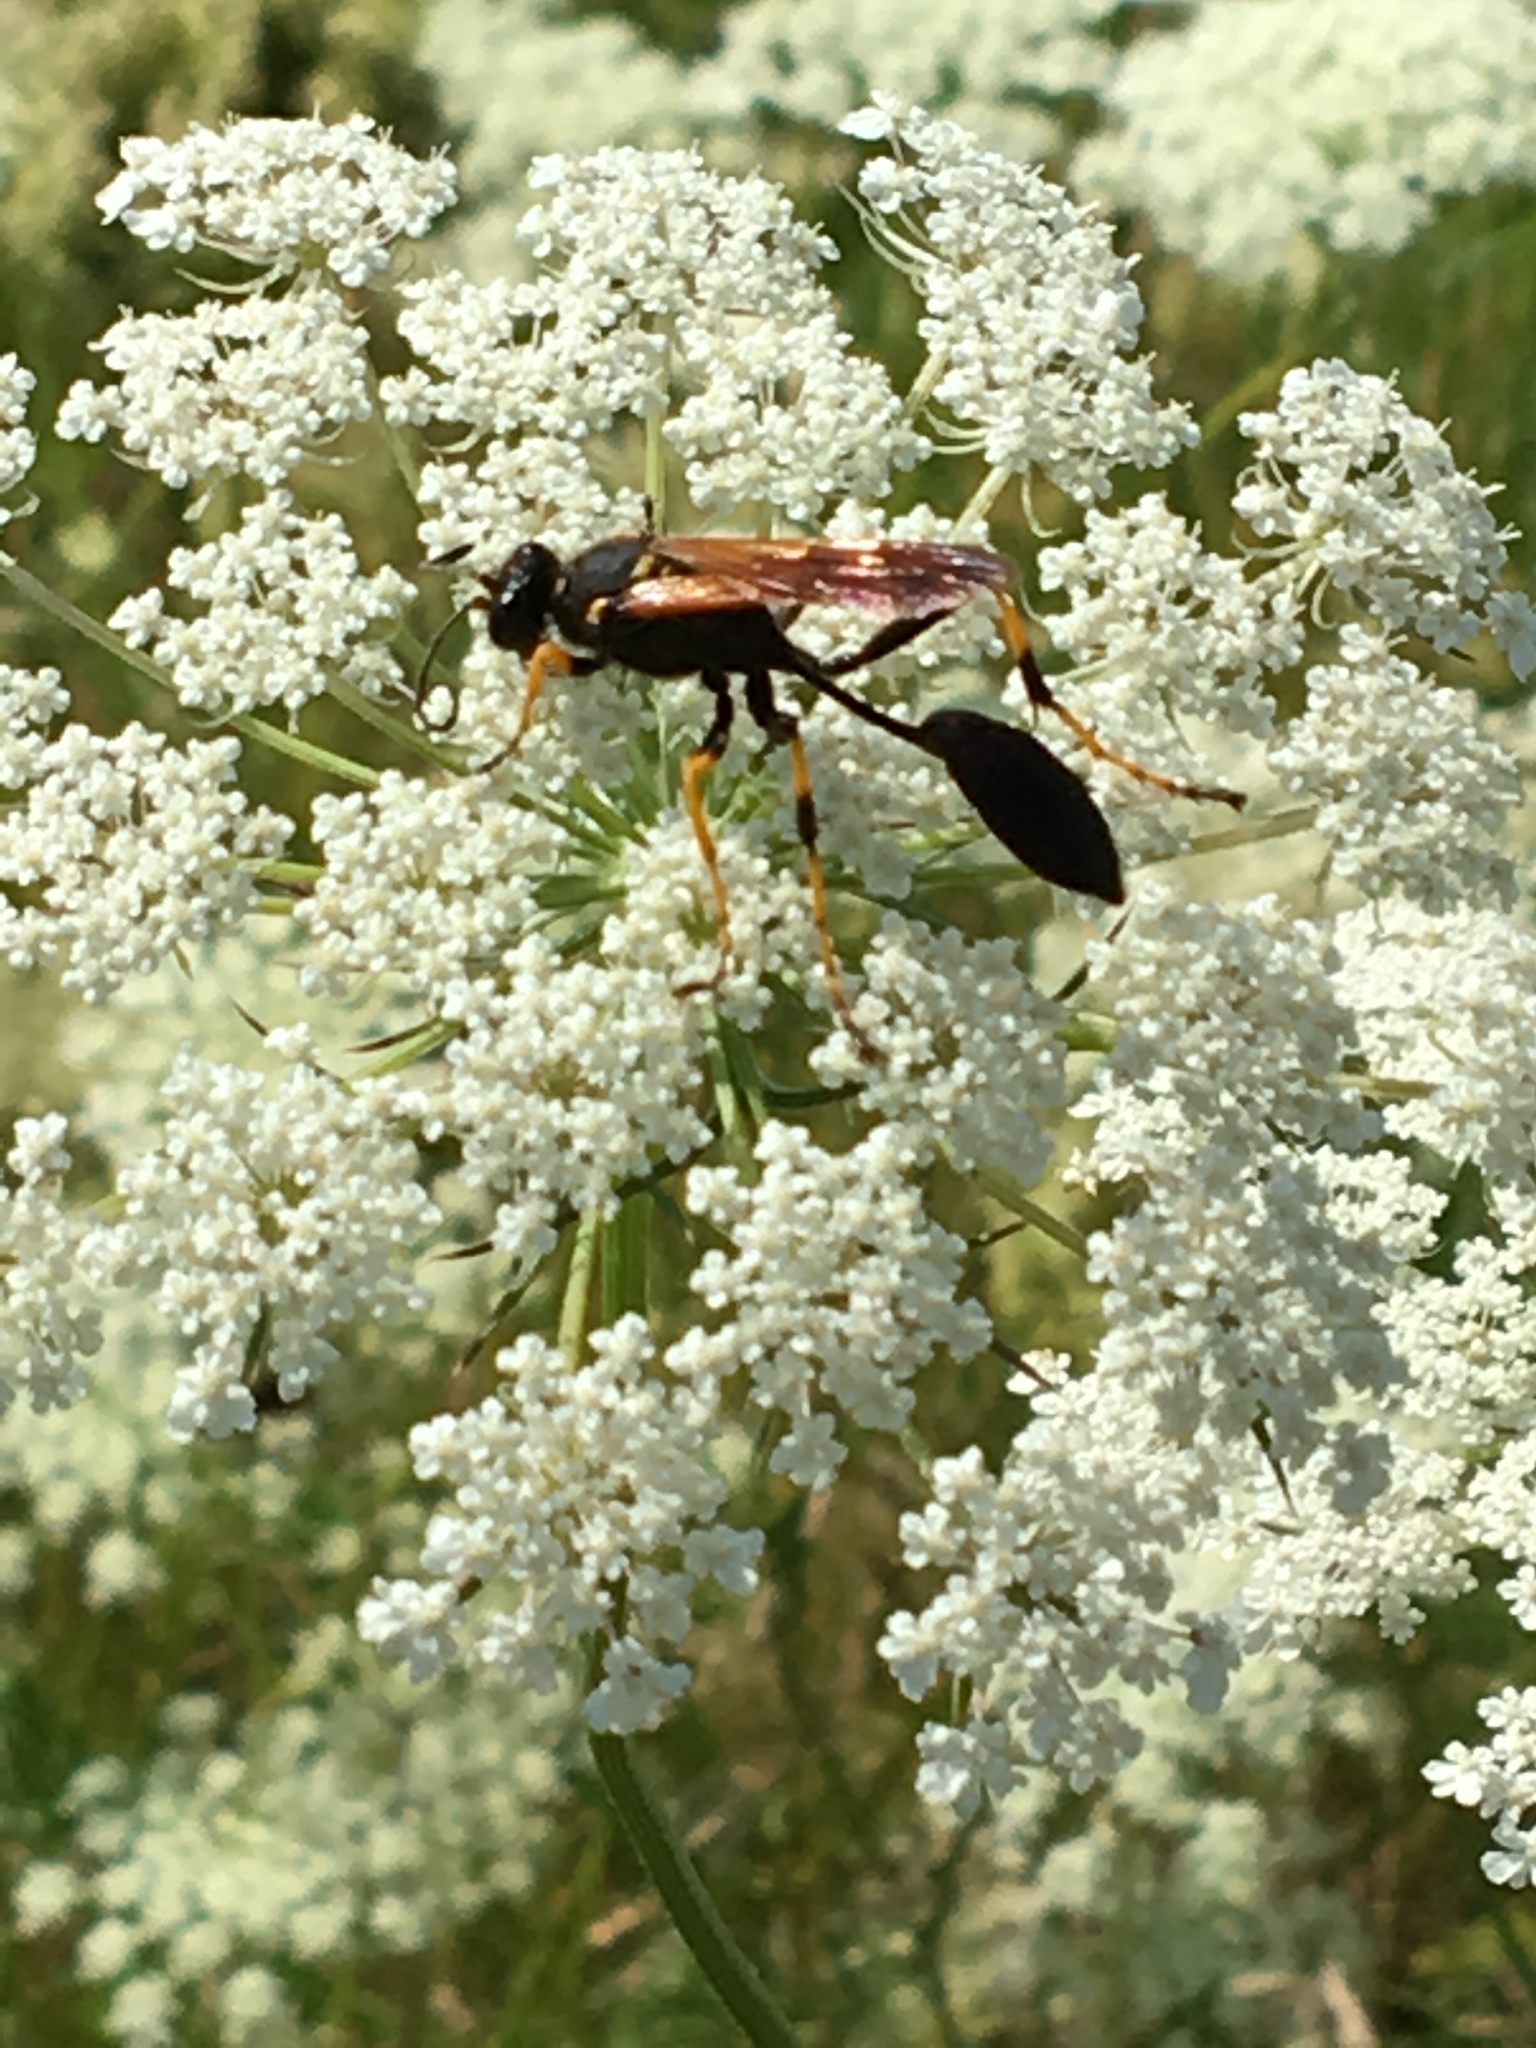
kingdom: Animalia
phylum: Arthropoda
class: Insecta
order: Hymenoptera
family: Sphecidae
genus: Sceliphron
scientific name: Sceliphron caementarium
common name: Mud dauber
